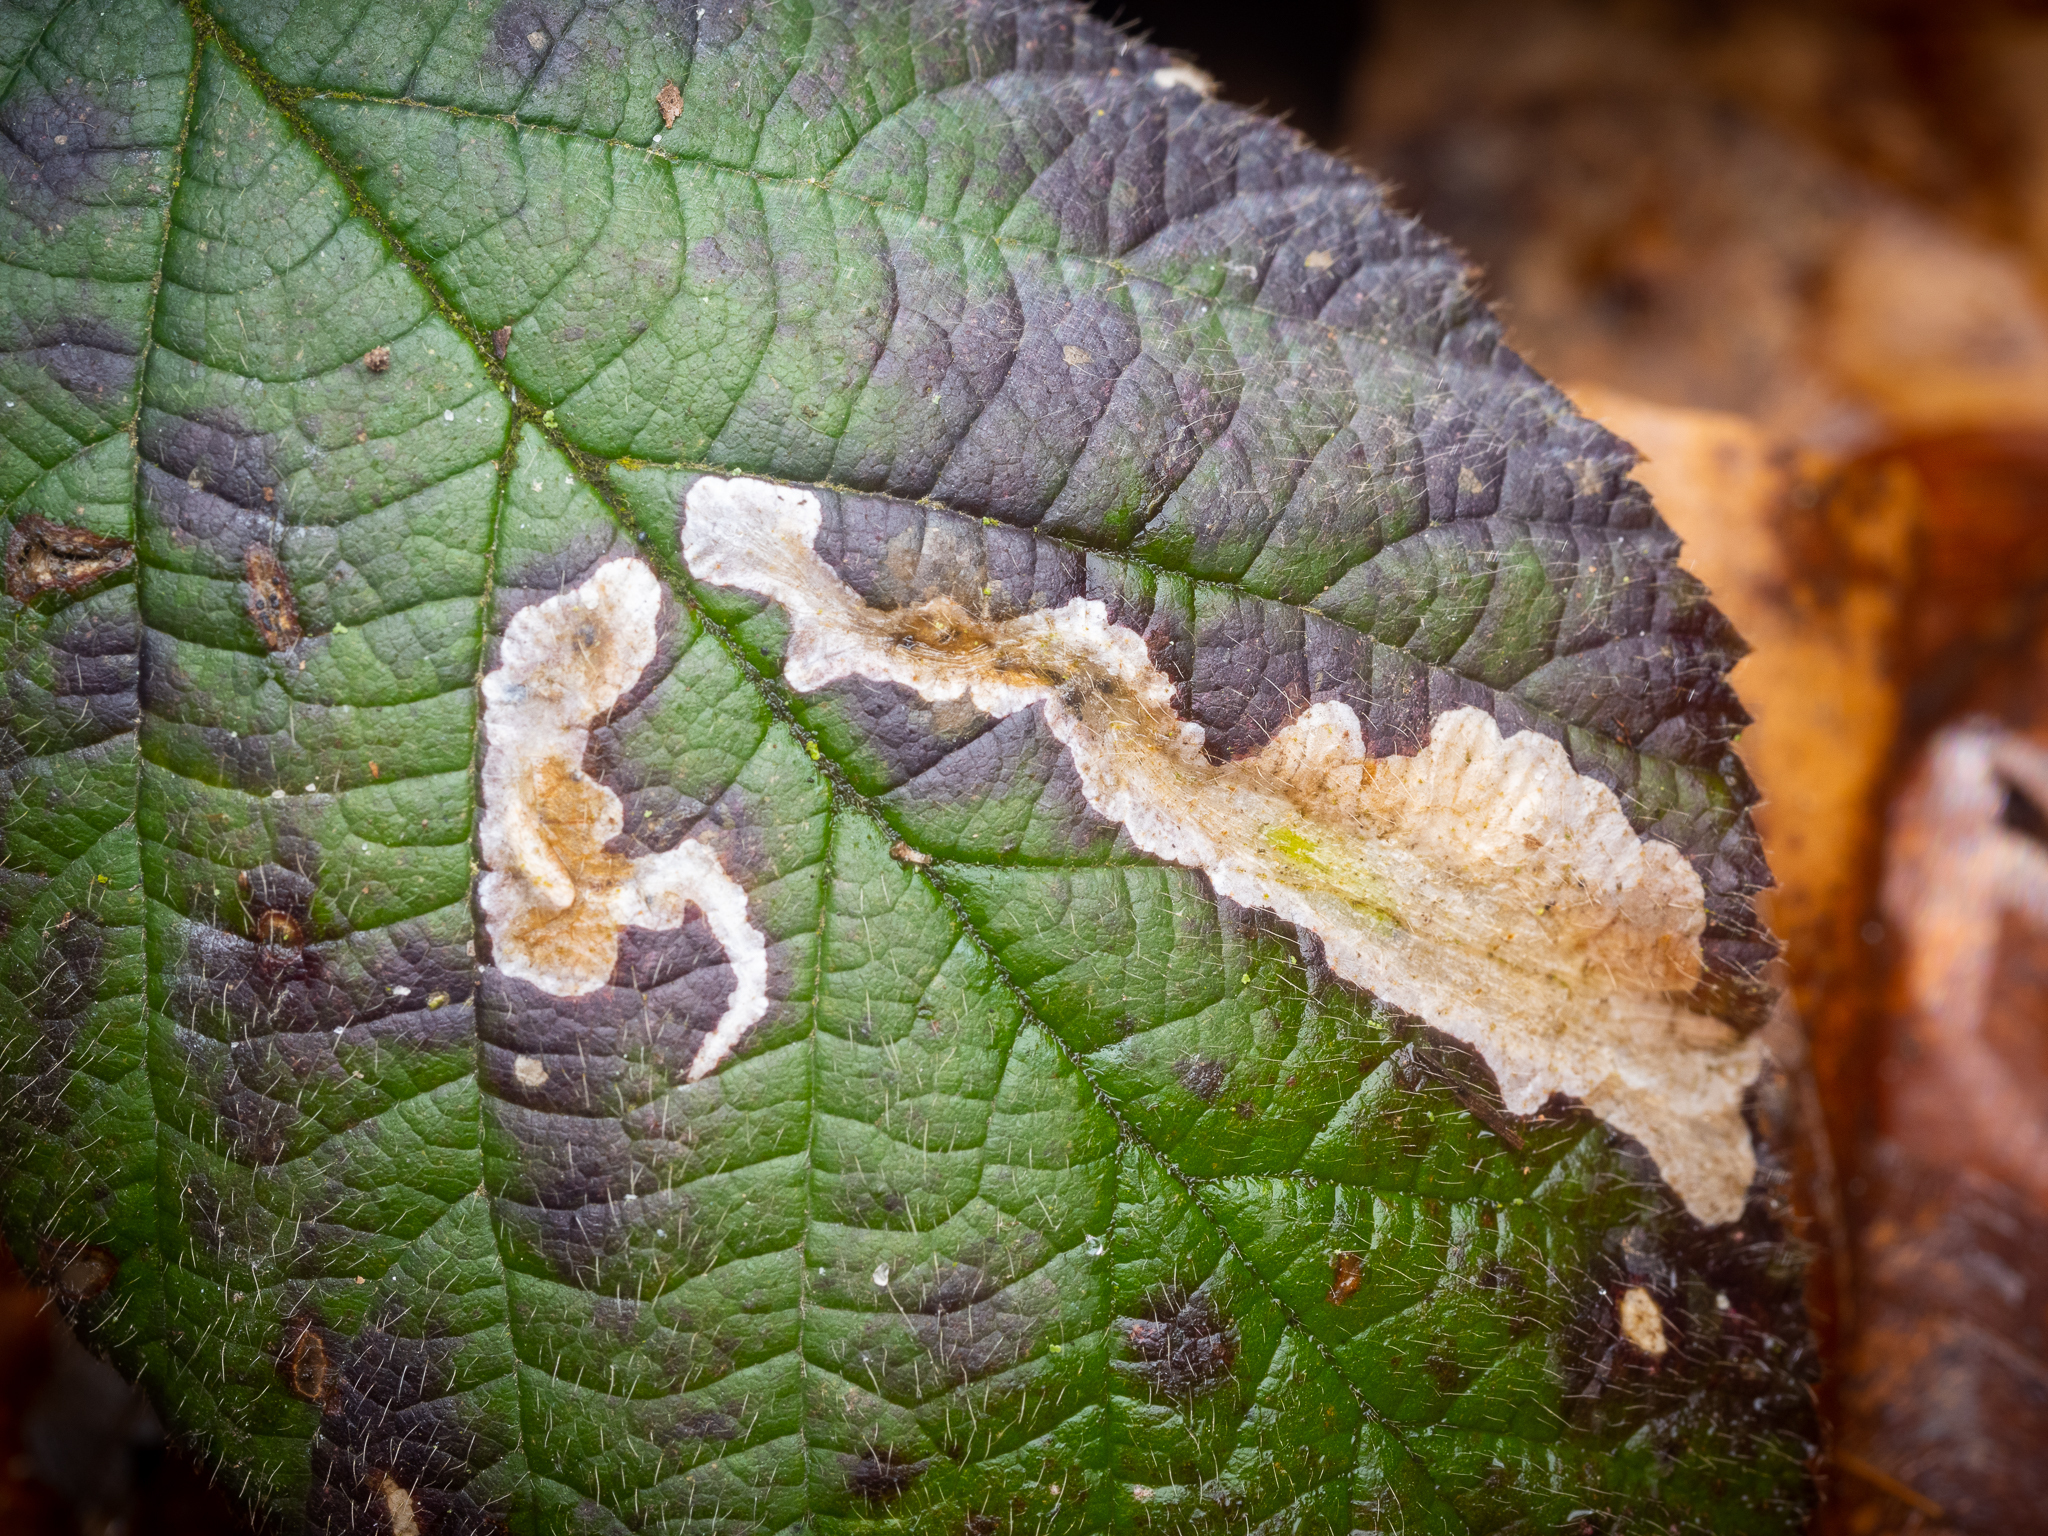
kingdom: Animalia
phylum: Arthropoda
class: Insecta
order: Lepidoptera
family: Tischeriidae
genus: Coptotriche
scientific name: Coptotriche marginea
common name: Bordered carl
